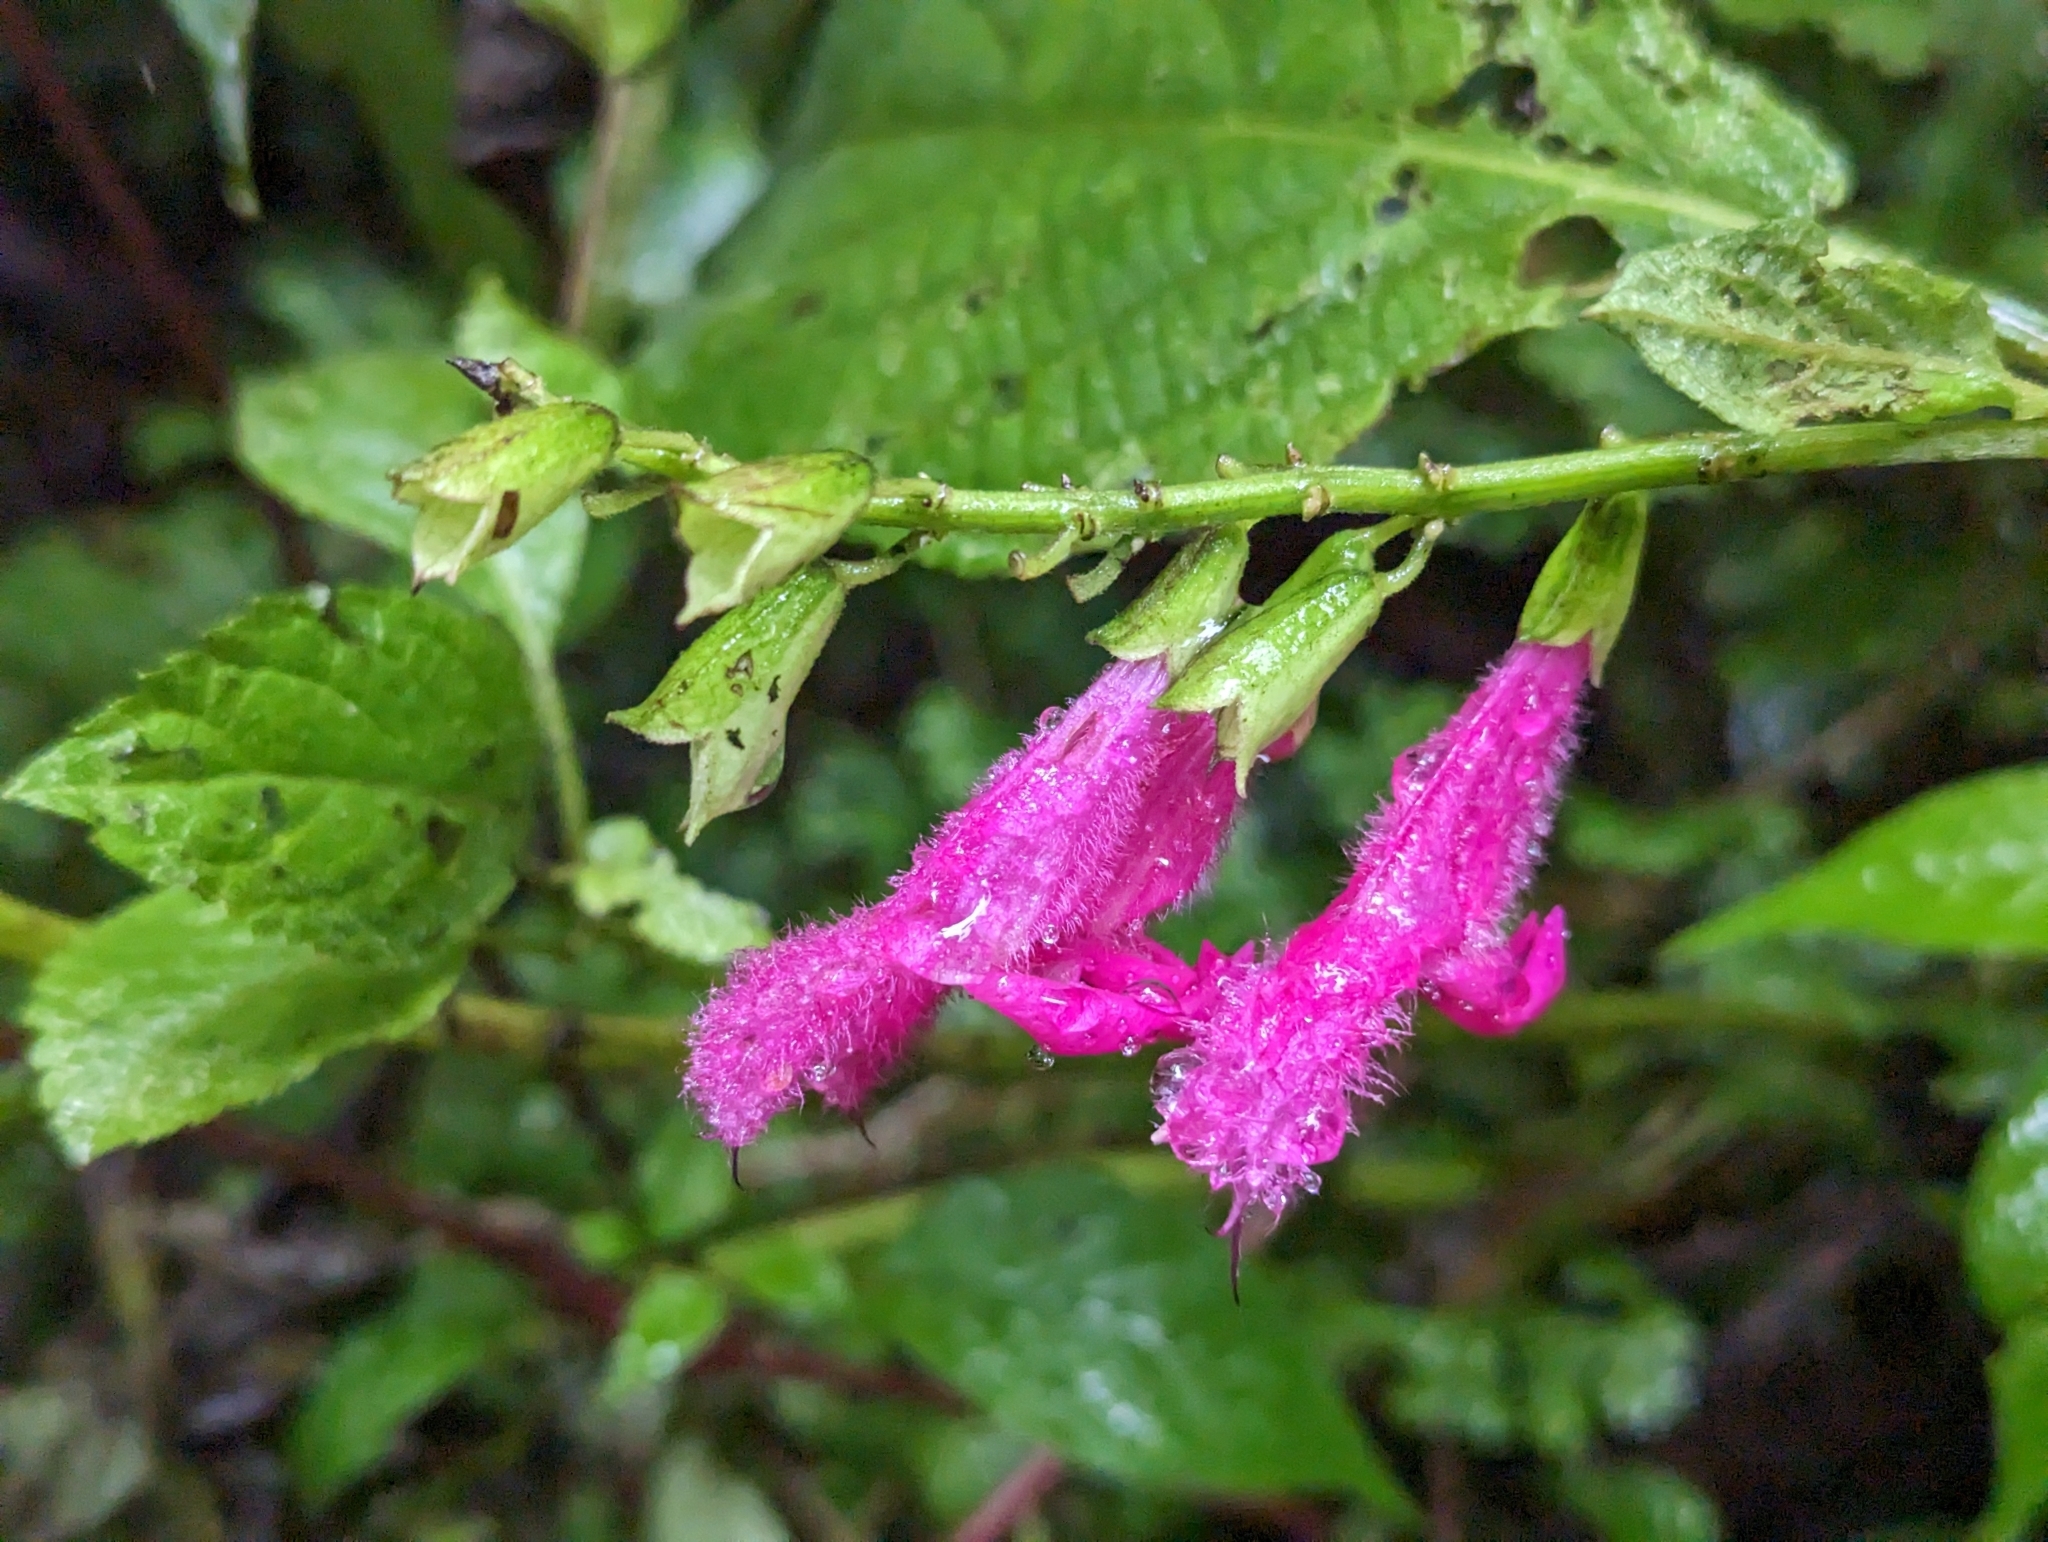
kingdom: Plantae
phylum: Tracheophyta
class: Magnoliopsida
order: Lamiales
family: Lamiaceae
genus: Salvia
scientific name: Salvia tortuosa
